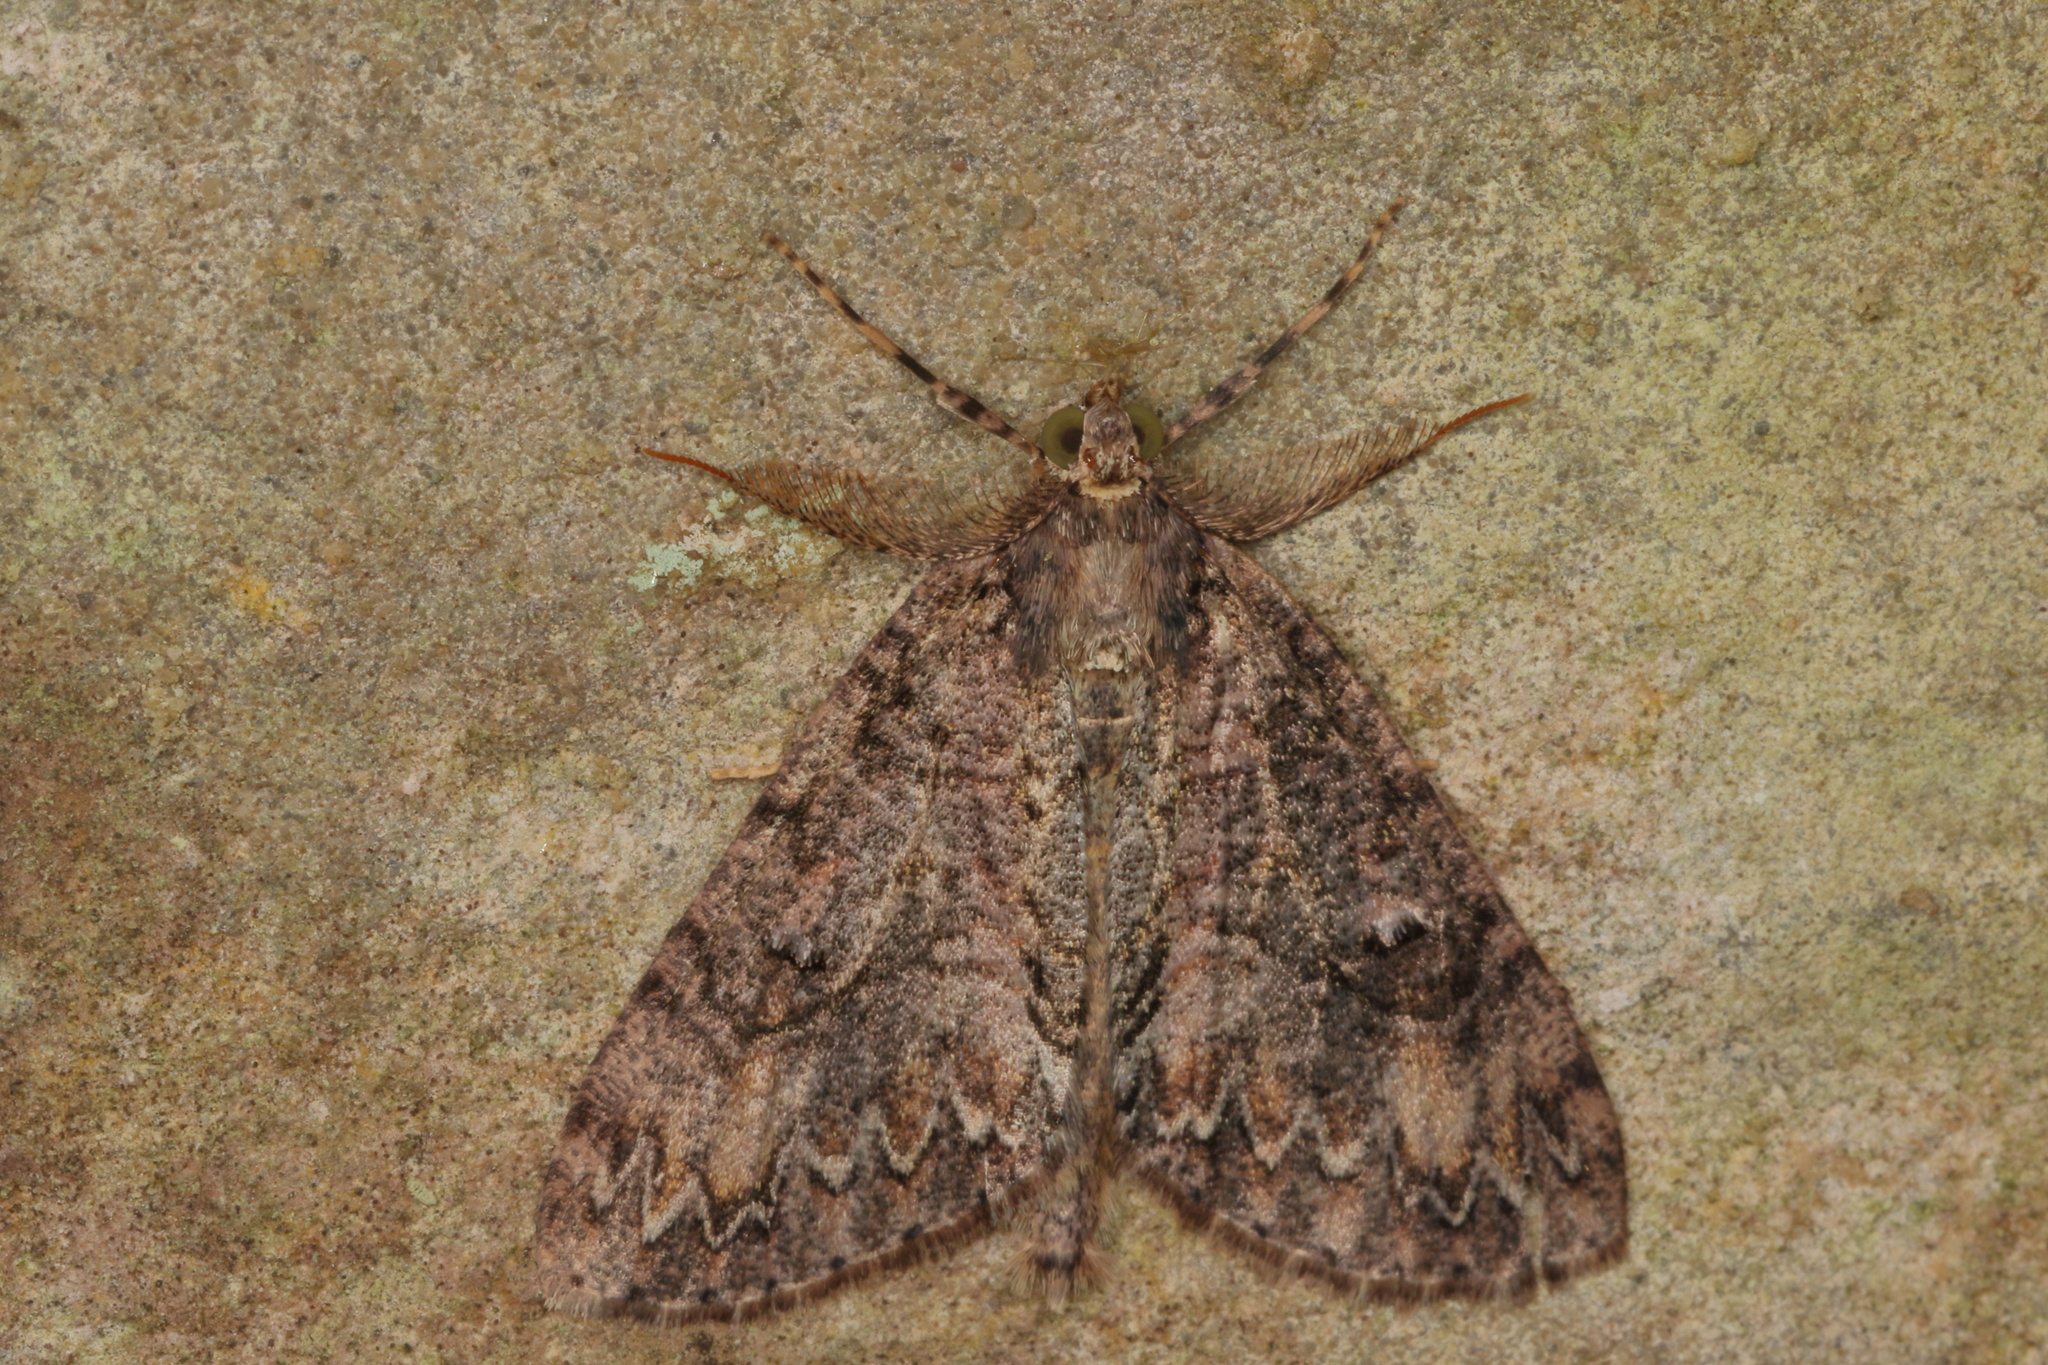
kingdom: Animalia
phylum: Arthropoda
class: Insecta
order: Lepidoptera
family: Geometridae
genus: Pseudocoremia
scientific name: Pseudocoremia suavis
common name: Common forest looper
